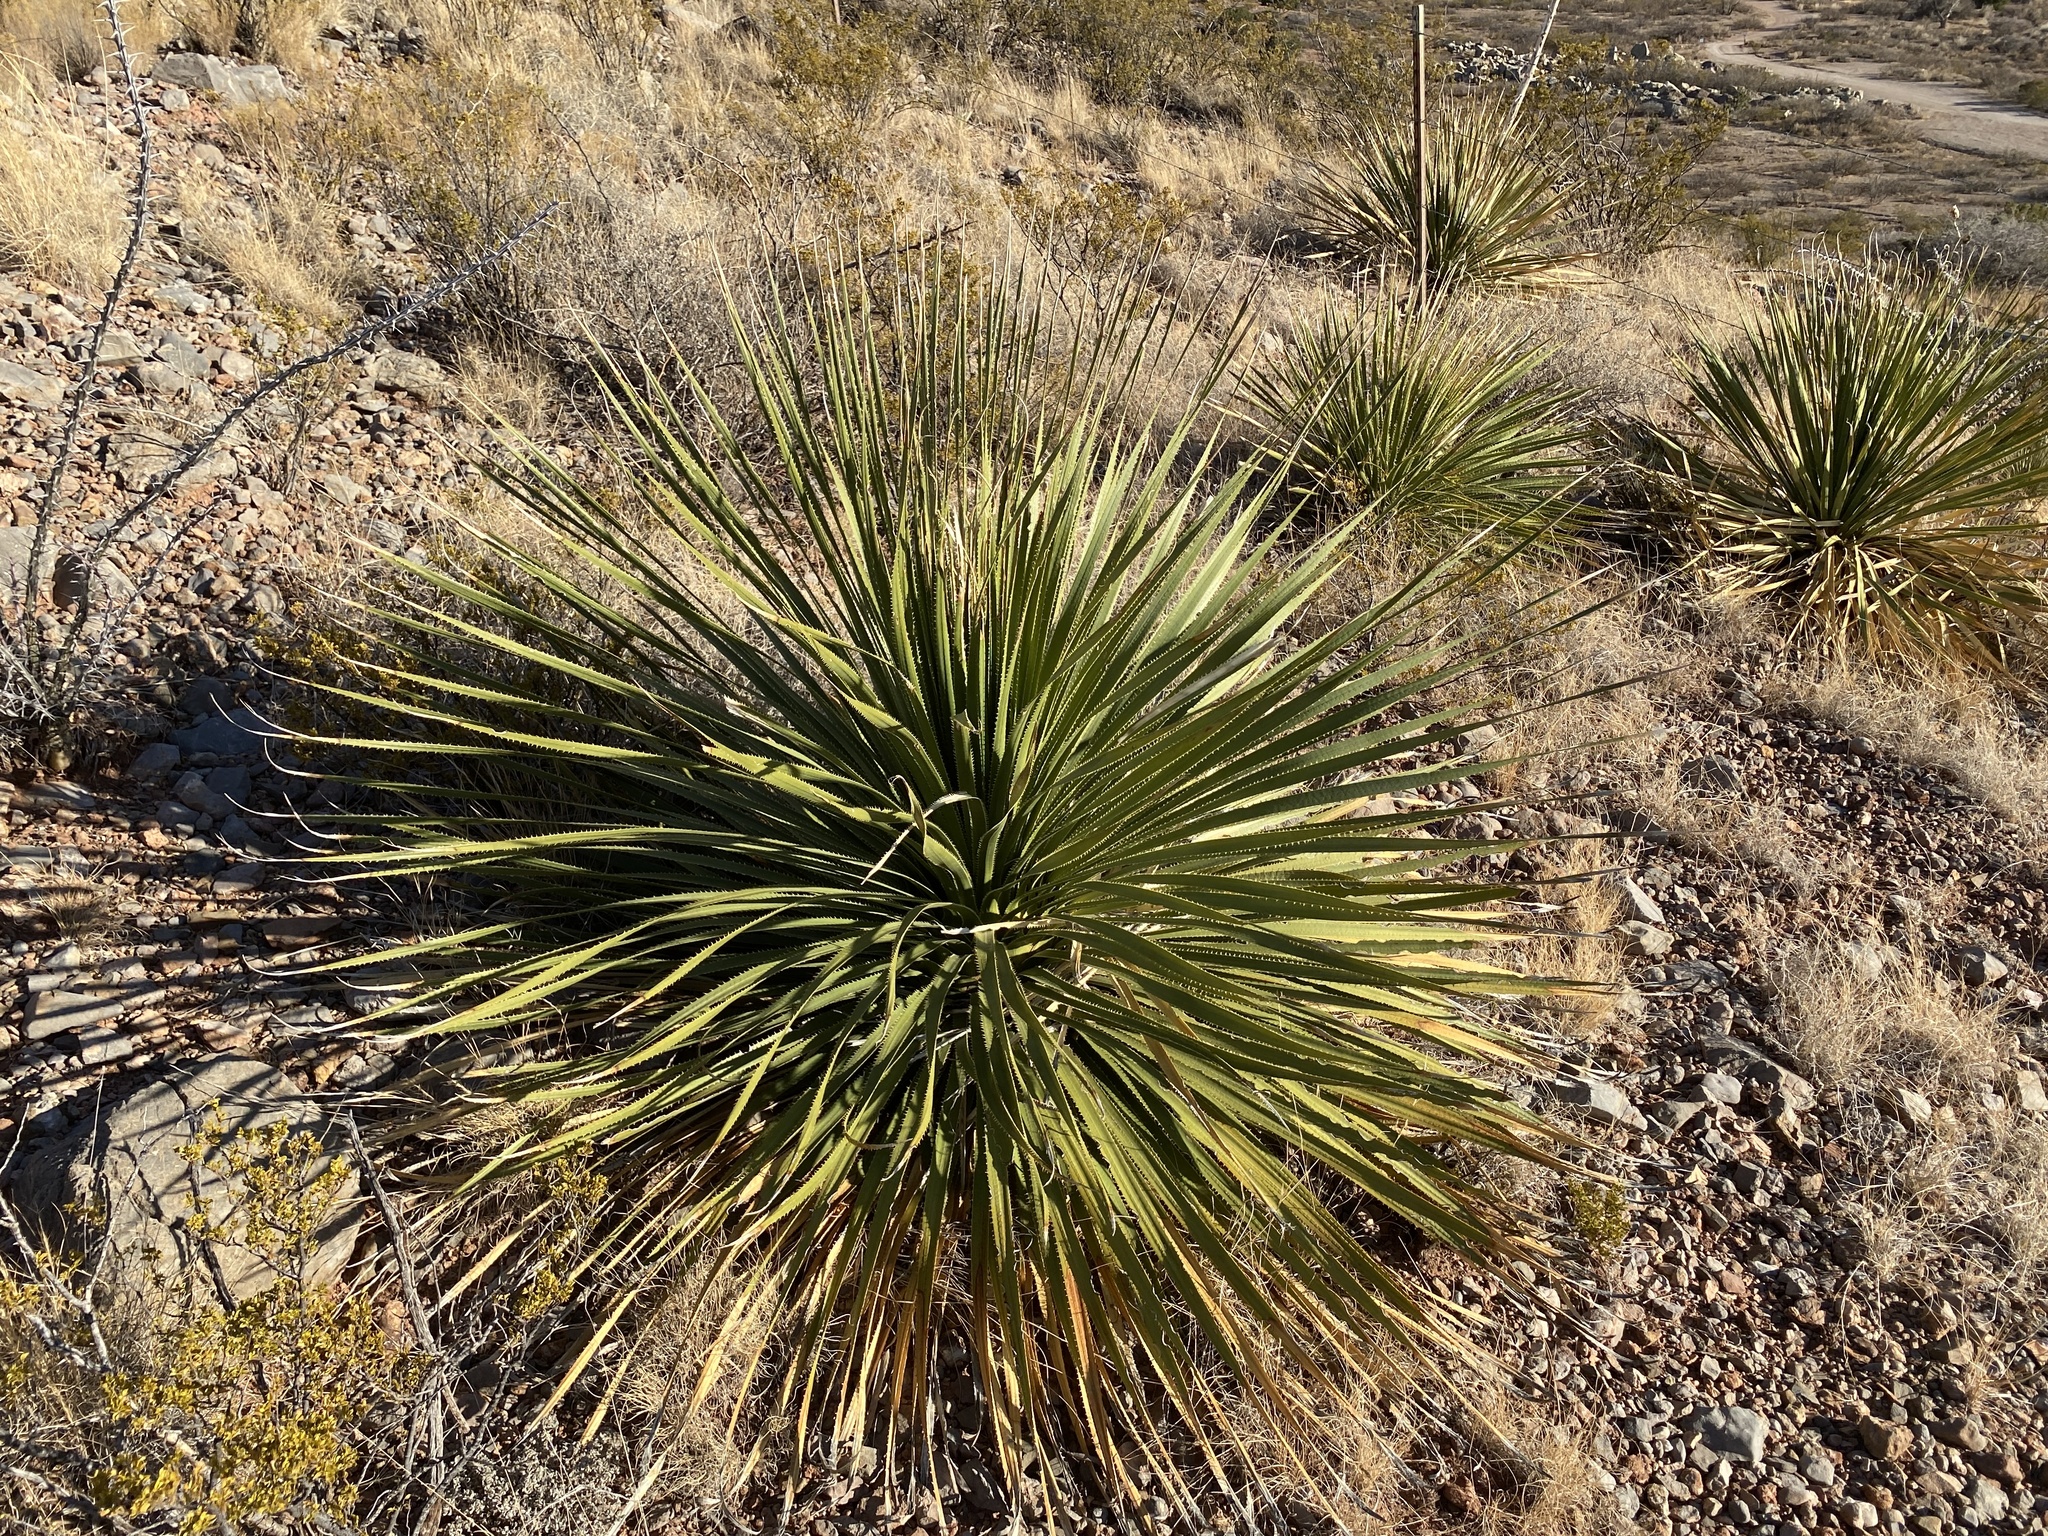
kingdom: Plantae
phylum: Tracheophyta
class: Liliopsida
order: Asparagales
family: Asparagaceae
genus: Dasylirion
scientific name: Dasylirion wheeleri
